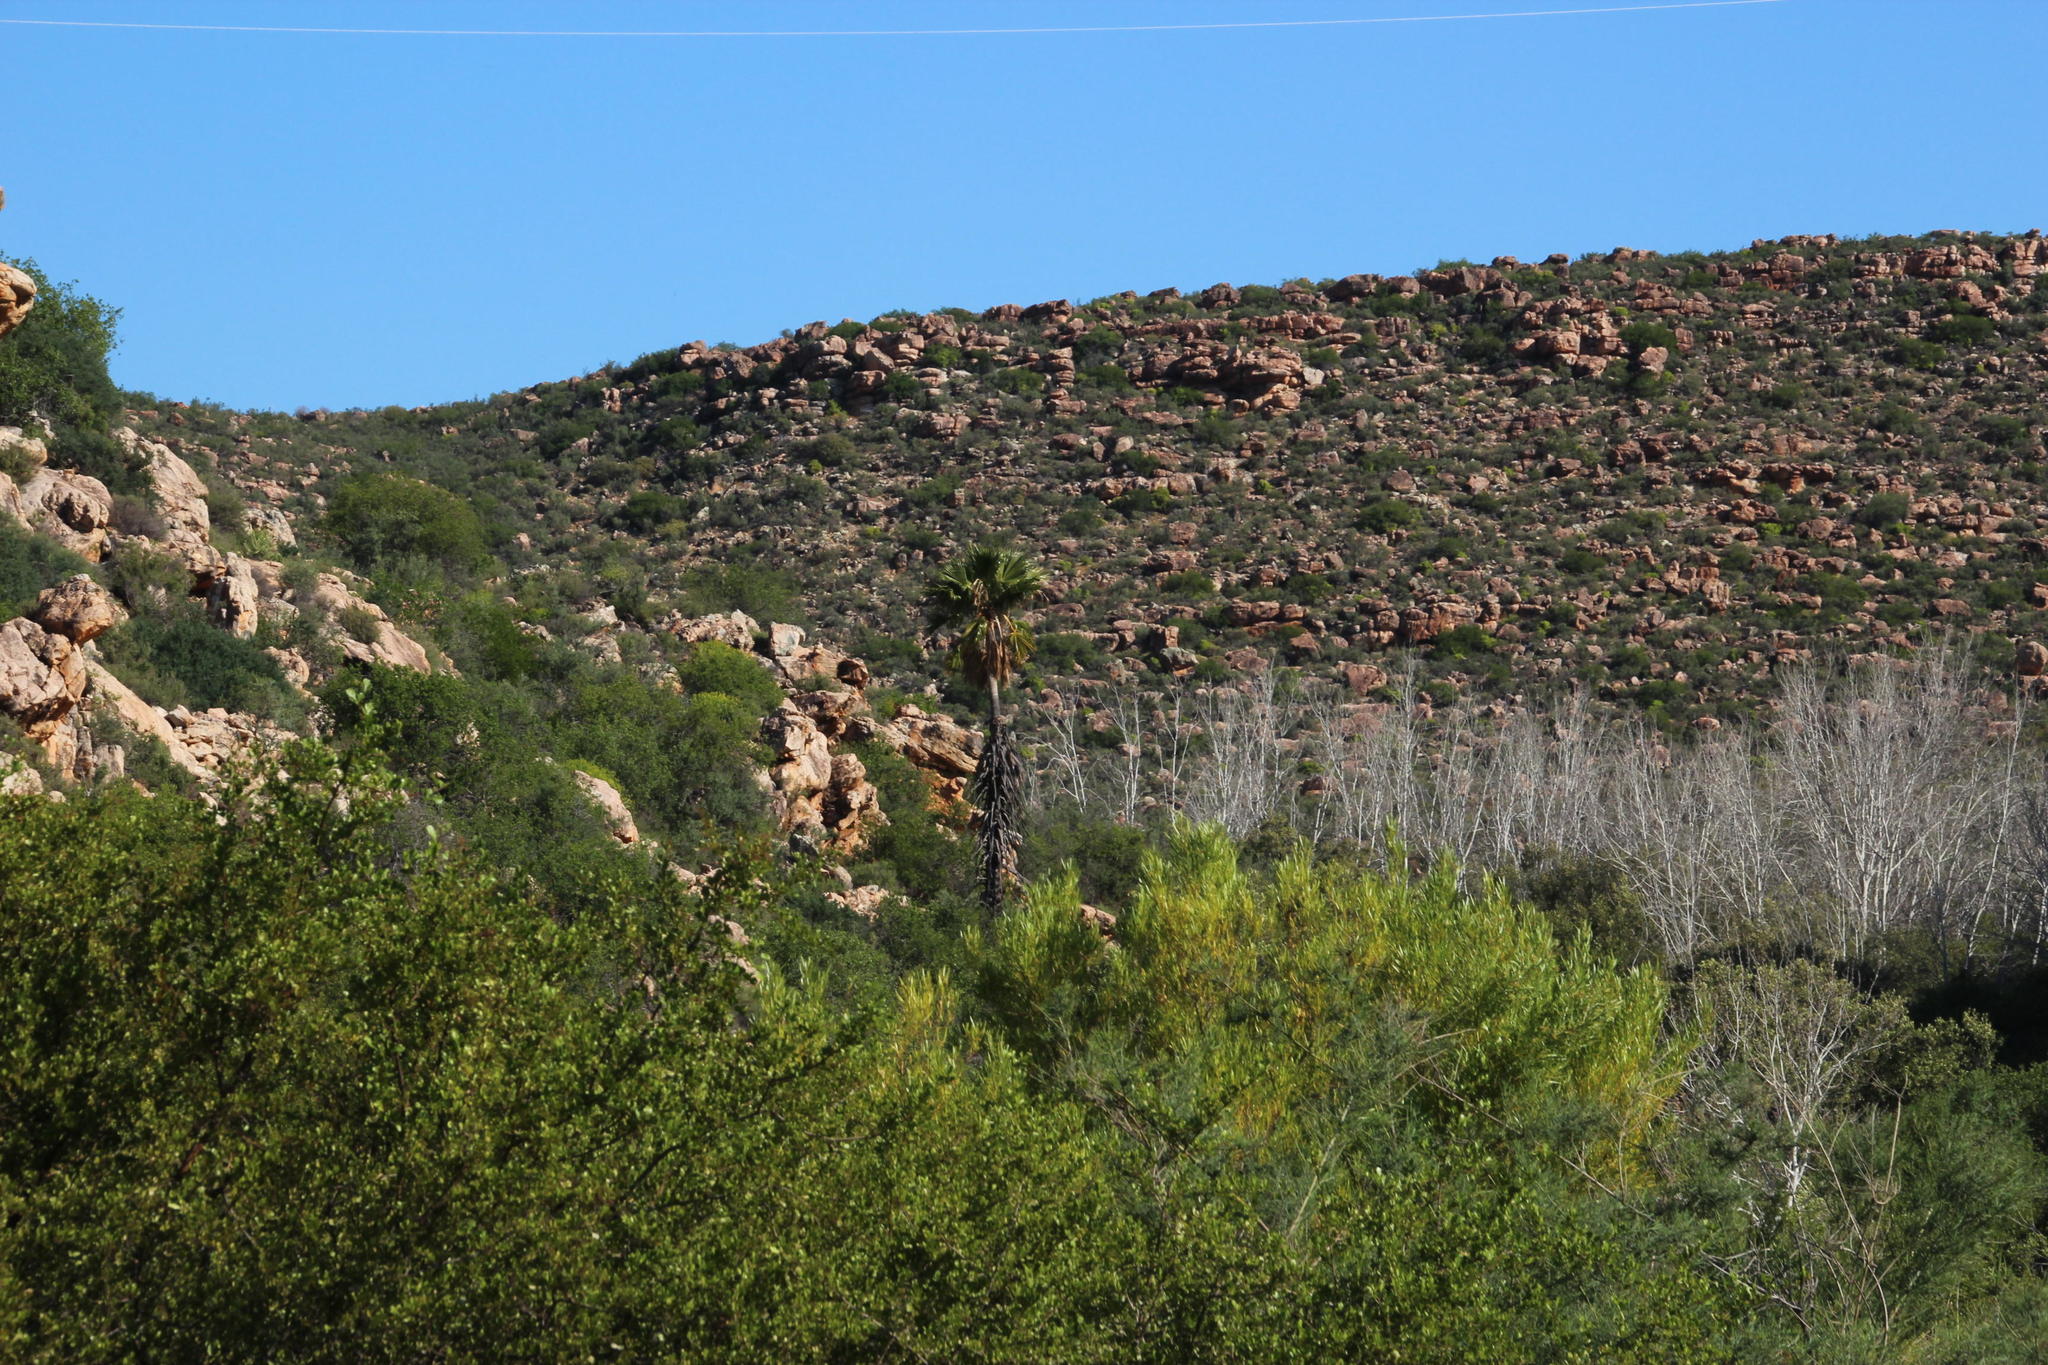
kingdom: Plantae
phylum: Tracheophyta
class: Liliopsida
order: Arecales
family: Arecaceae
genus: Washingtonia
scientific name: Washingtonia robusta
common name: Mexican fan palm
